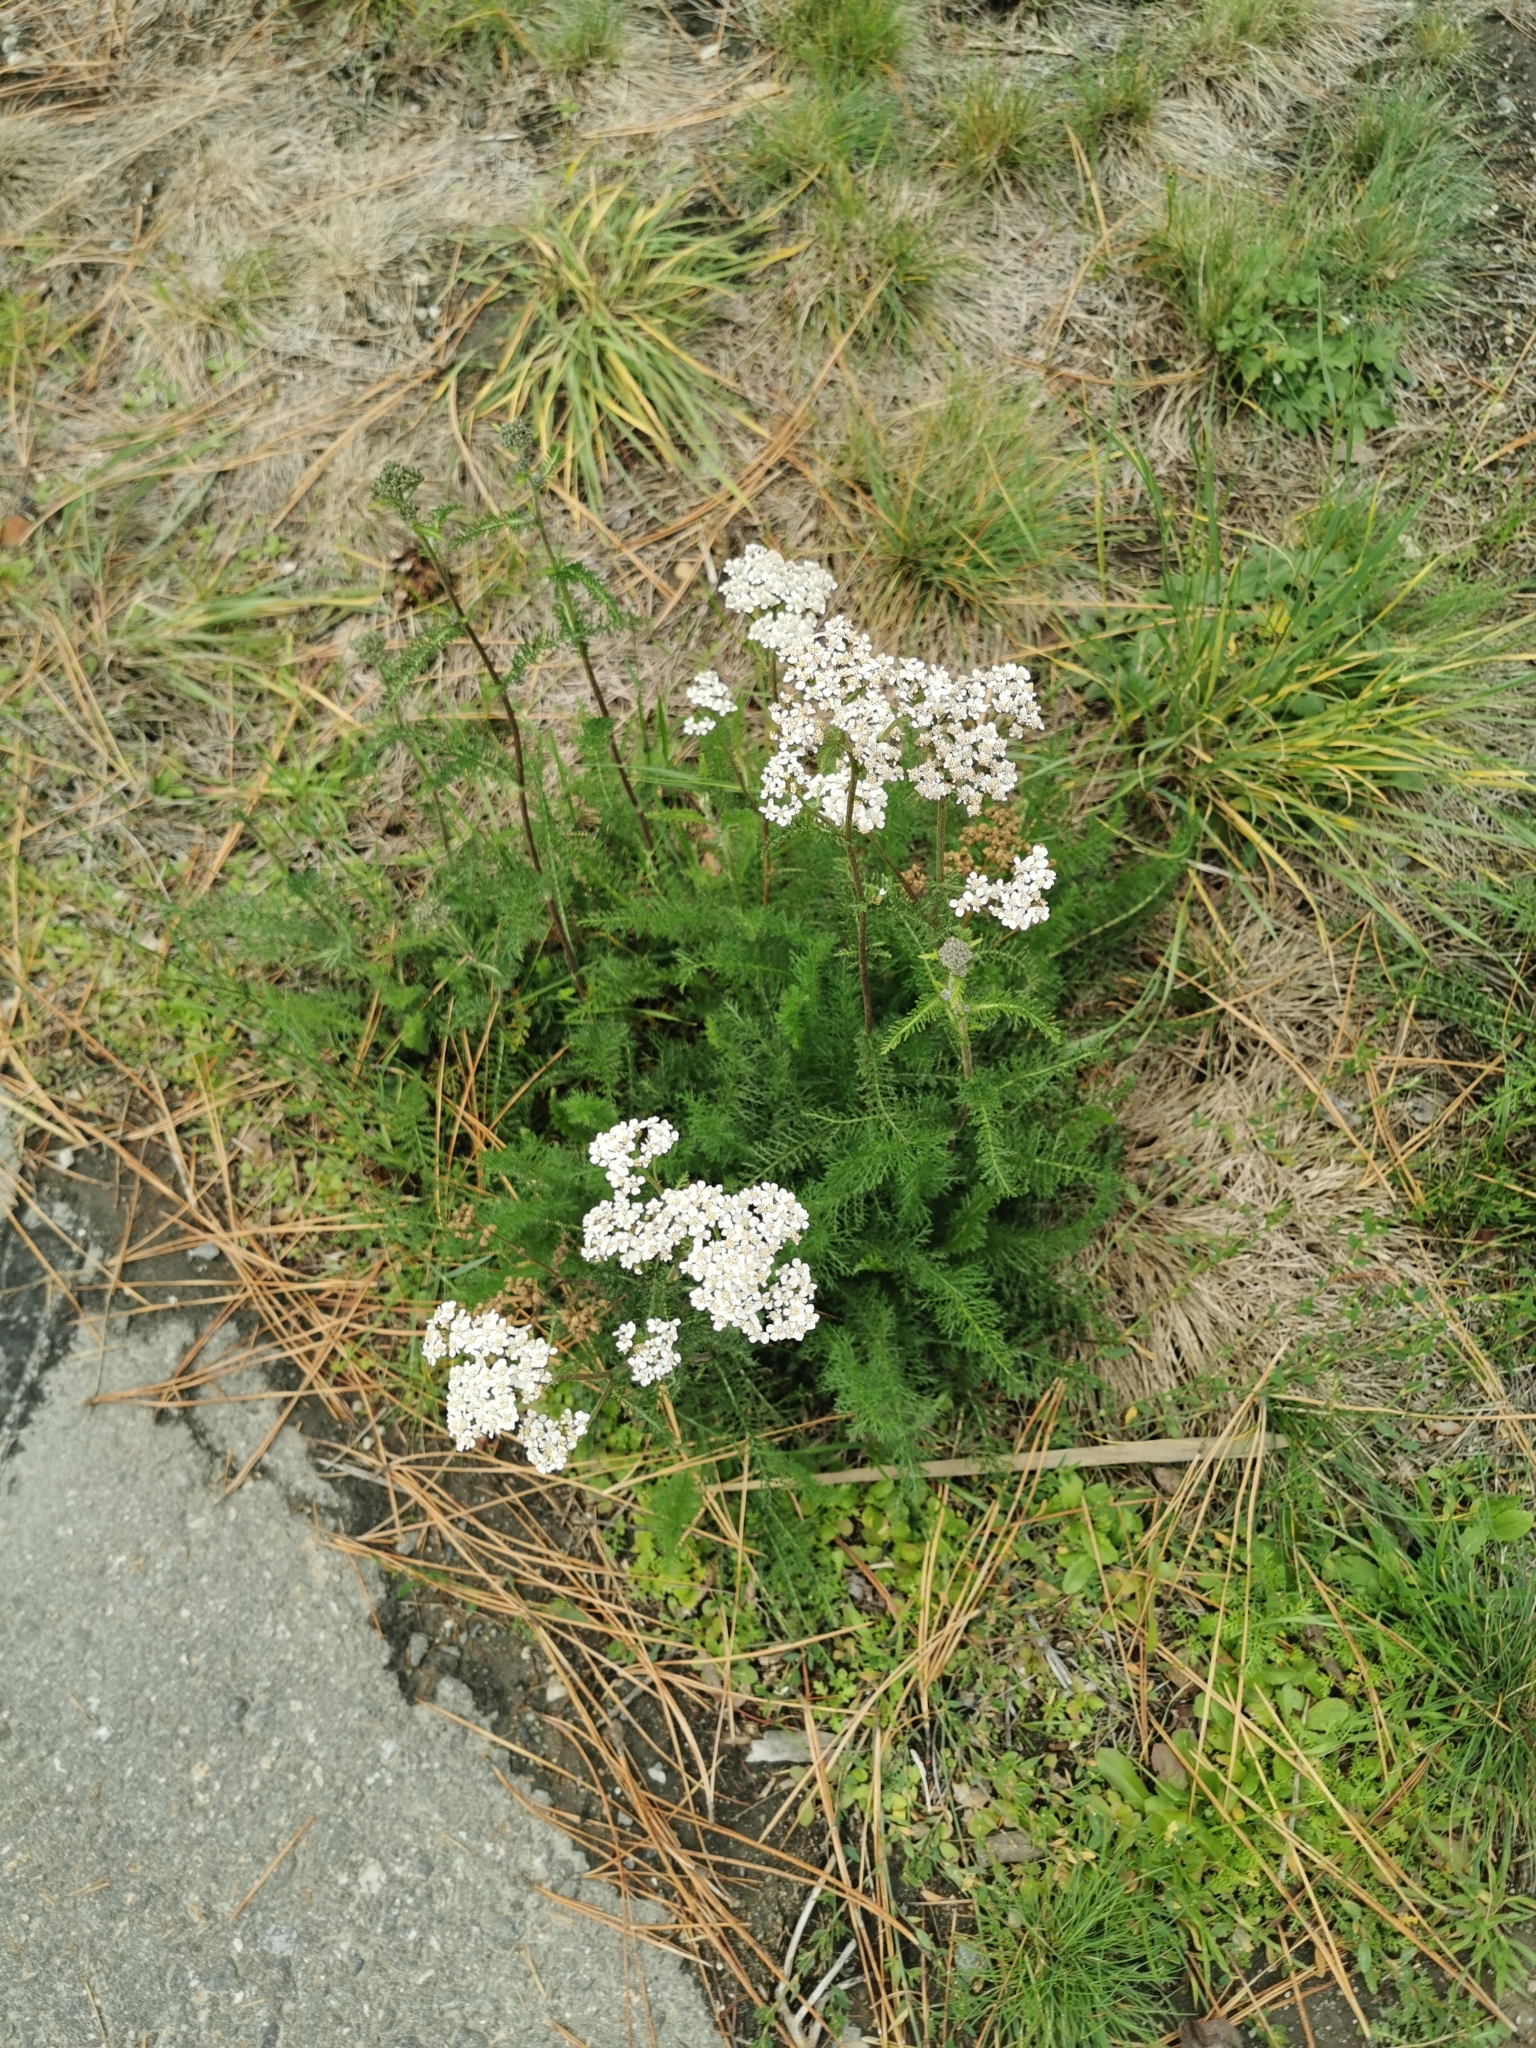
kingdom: Plantae
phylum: Tracheophyta
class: Magnoliopsida
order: Asterales
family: Asteraceae
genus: Achillea
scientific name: Achillea millefolium
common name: Yarrow
